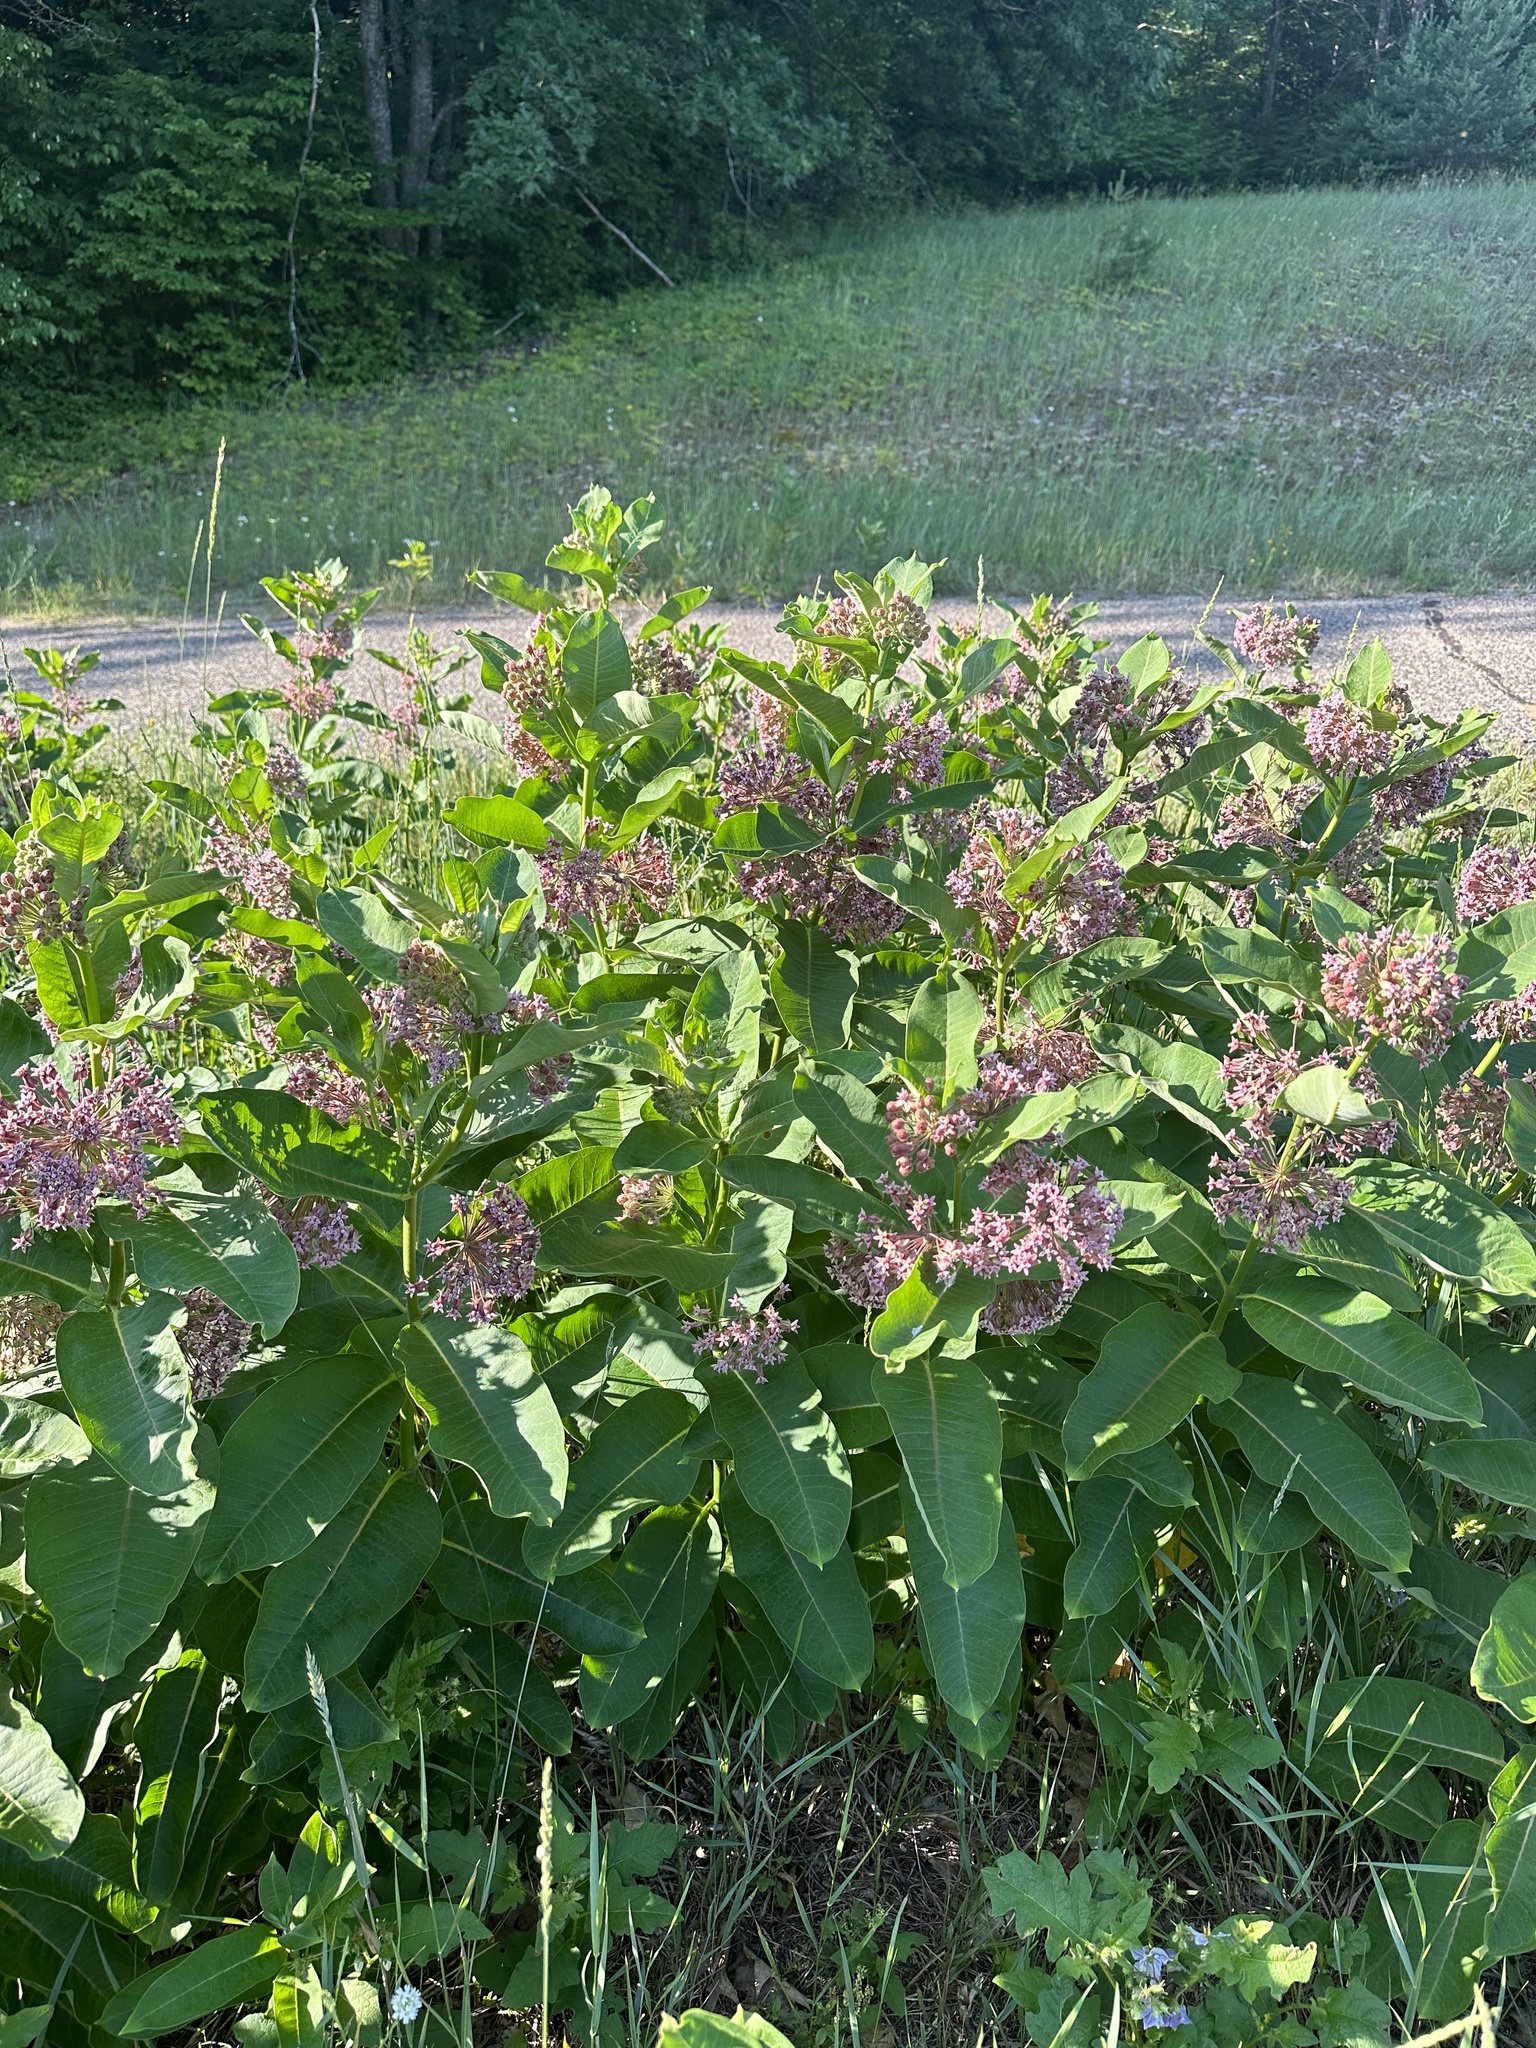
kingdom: Plantae
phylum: Tracheophyta
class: Magnoliopsida
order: Gentianales
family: Apocynaceae
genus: Asclepias
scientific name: Asclepias syriaca
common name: Common milkweed
